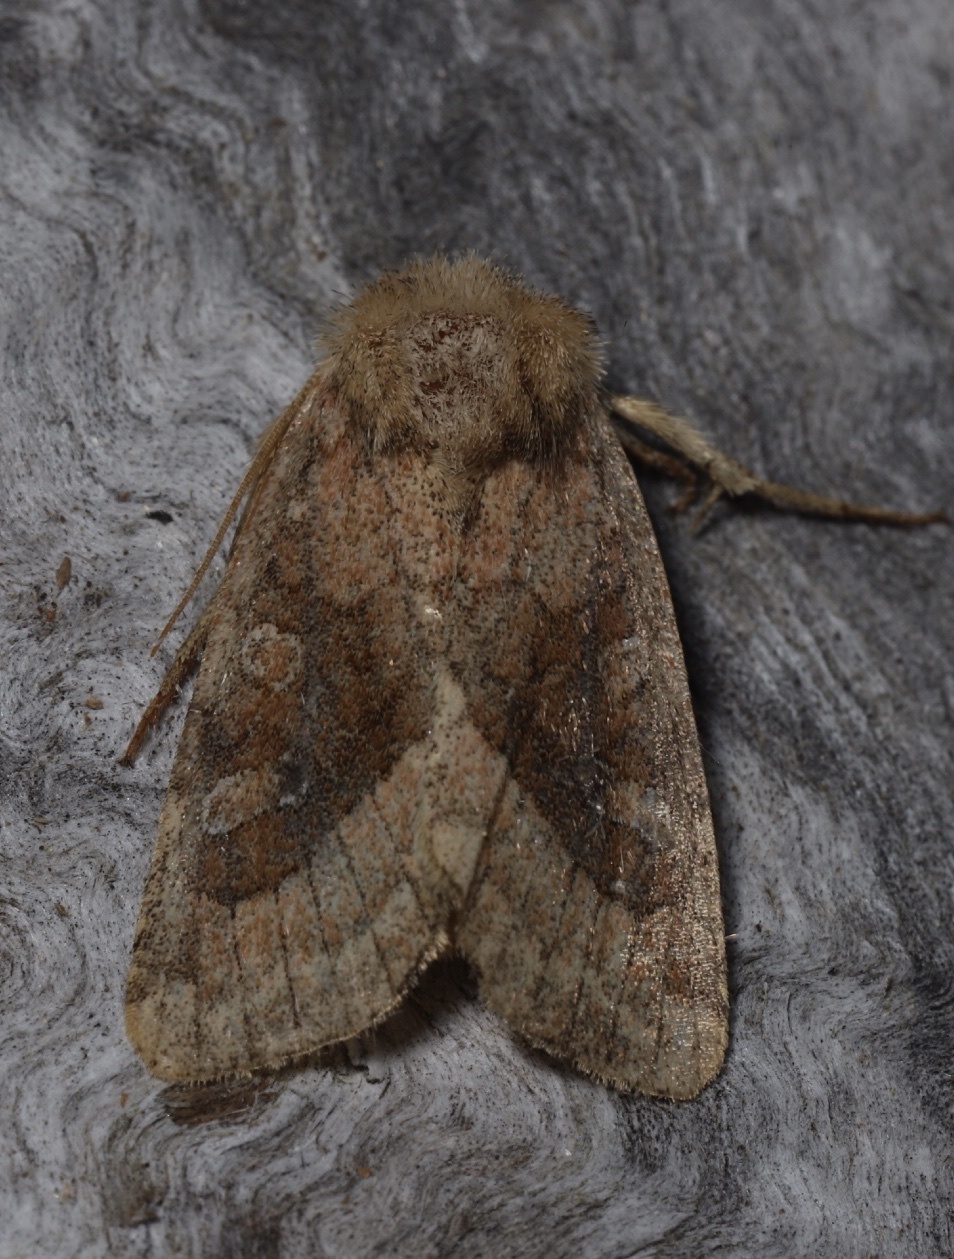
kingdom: Animalia
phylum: Arthropoda
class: Insecta
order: Lepidoptera
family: Noctuidae
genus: Lacinipolia
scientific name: Lacinipolia lorea
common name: Bridled arches moth
